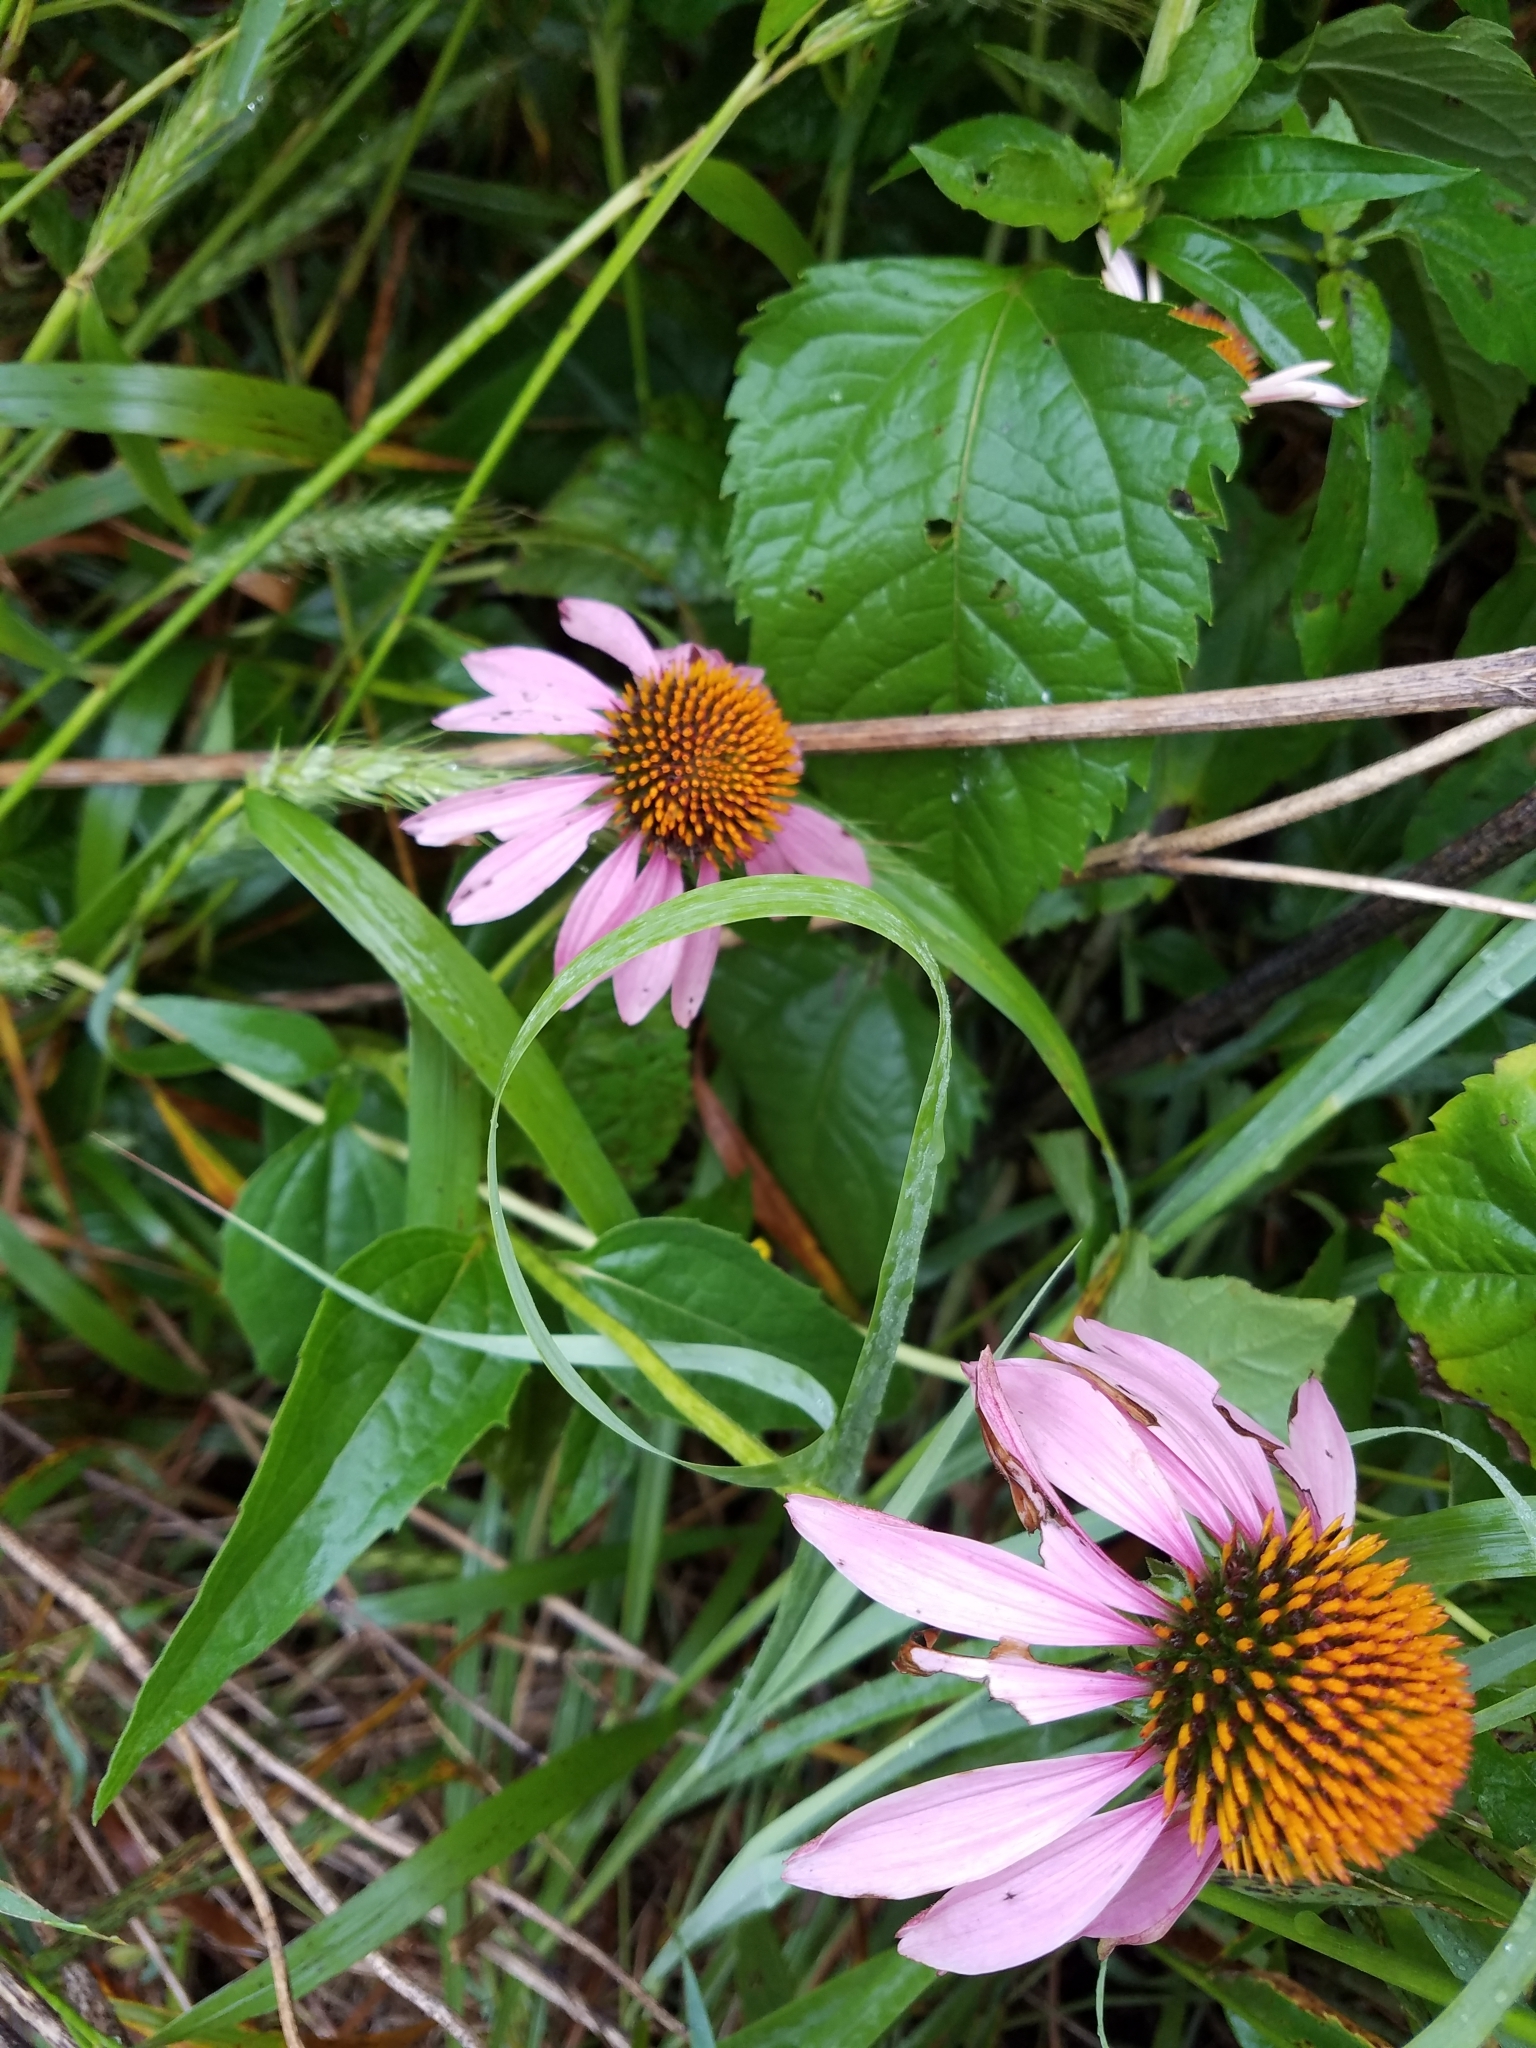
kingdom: Plantae
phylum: Tracheophyta
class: Magnoliopsida
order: Asterales
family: Asteraceae
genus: Echinacea
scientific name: Echinacea purpurea
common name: Broad-leaved purple coneflower
